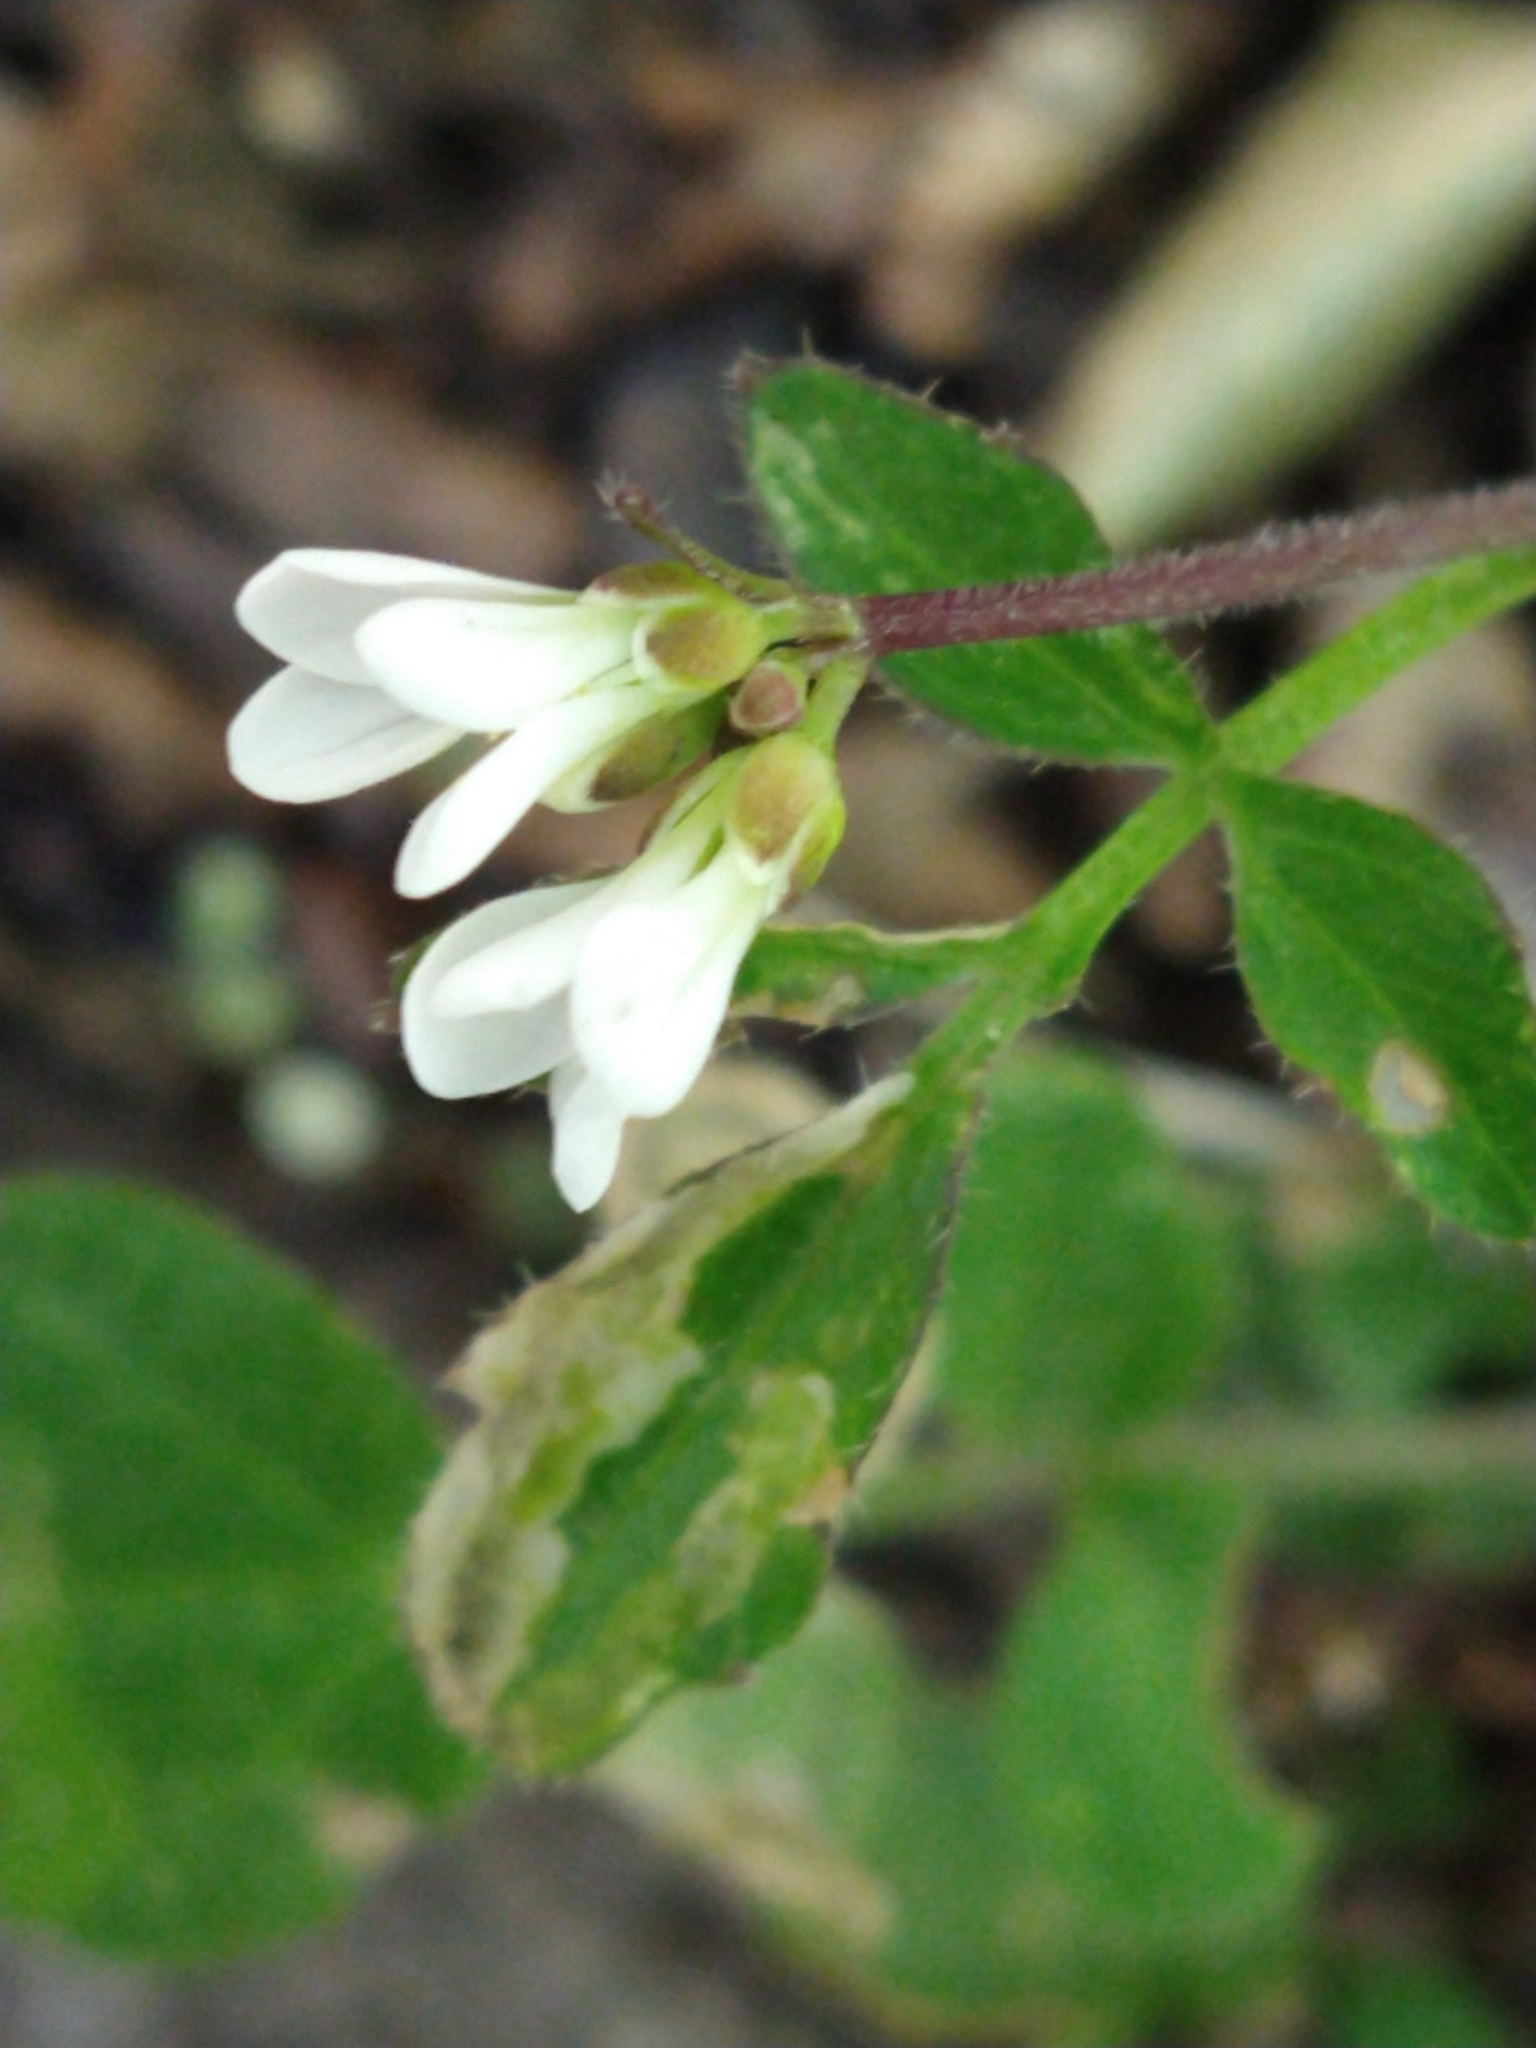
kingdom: Plantae
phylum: Tracheophyta
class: Magnoliopsida
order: Brassicales
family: Brassicaceae
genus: Cardamine
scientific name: Cardamine glacialis
